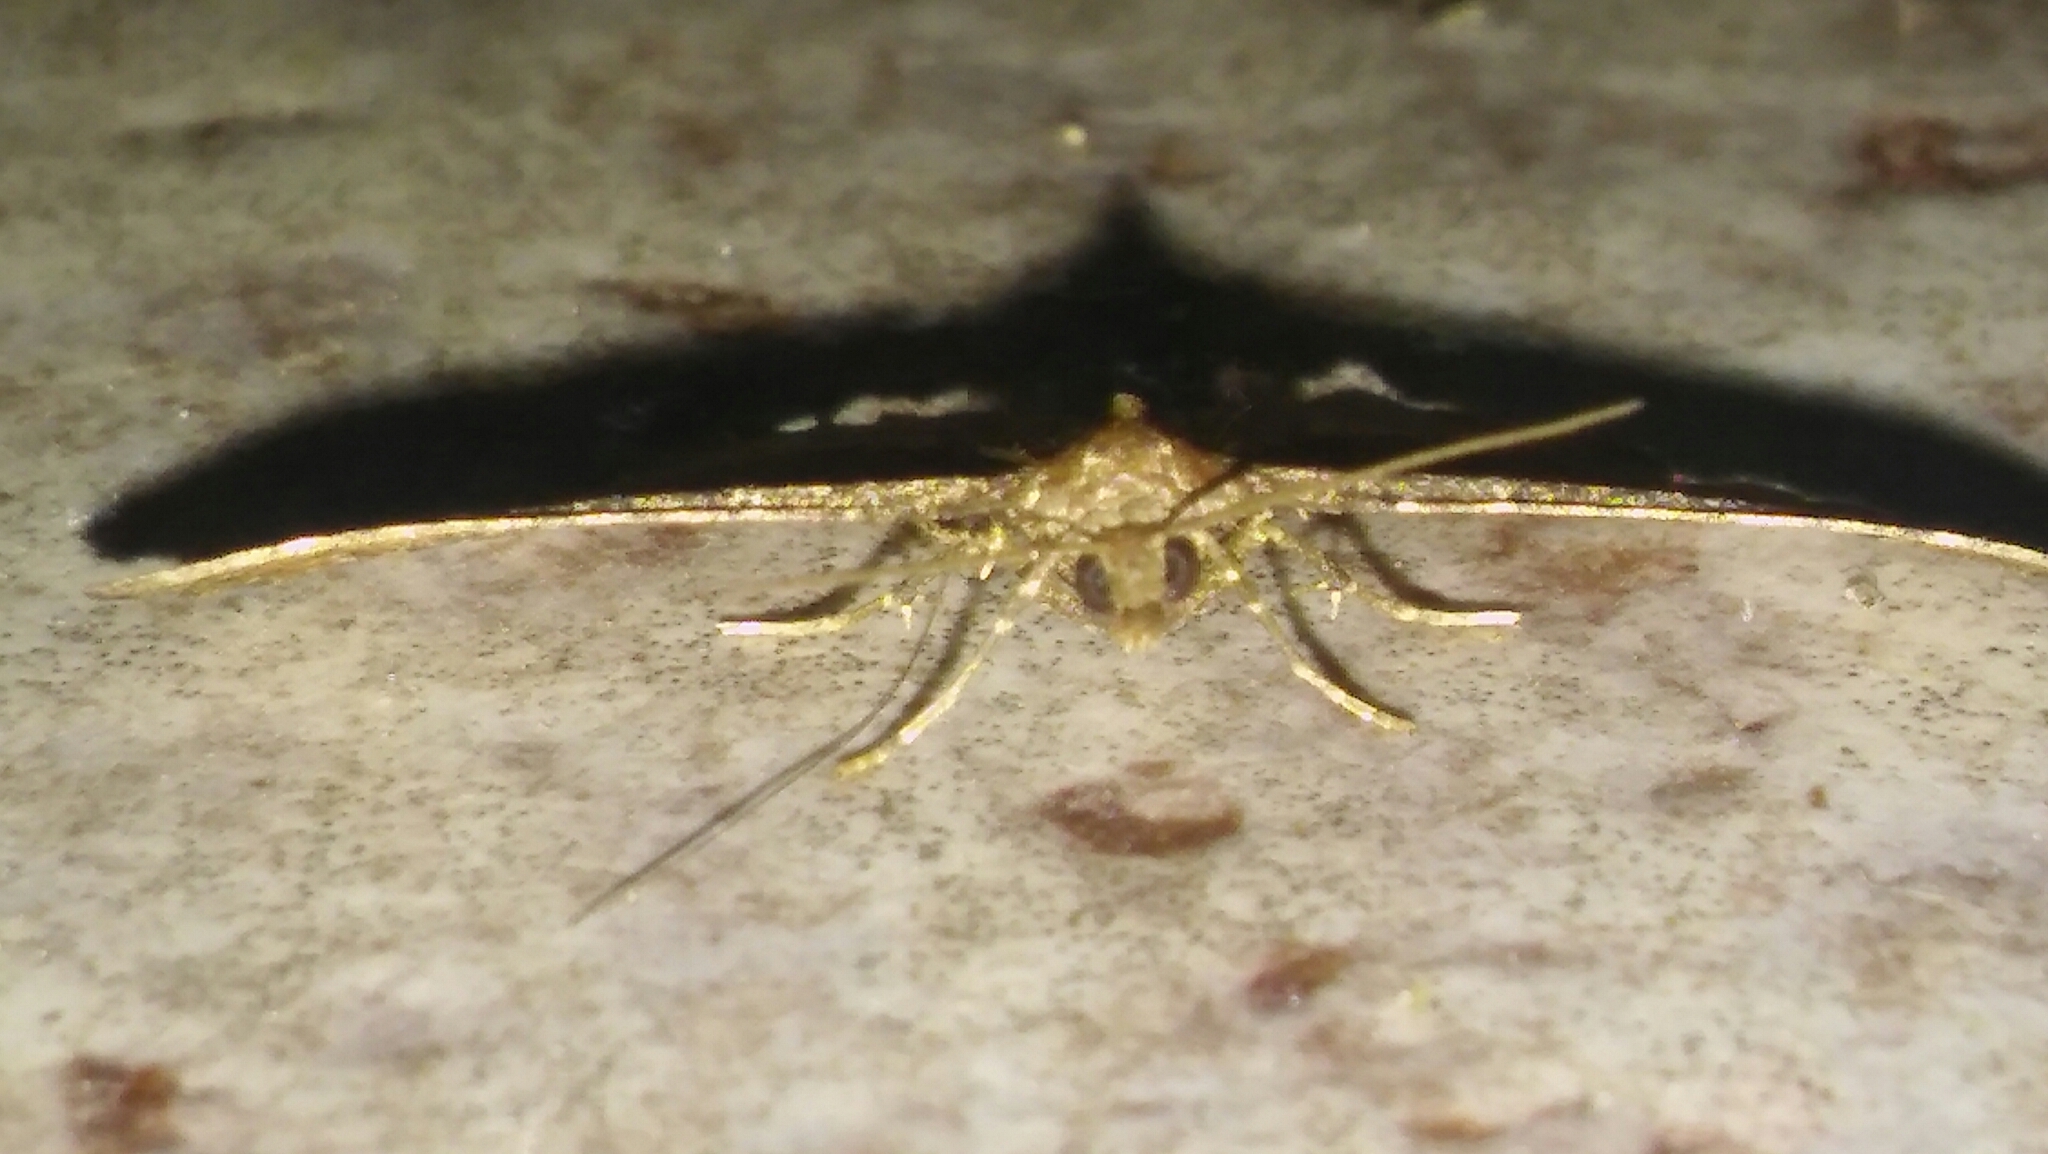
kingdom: Animalia
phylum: Arthropoda
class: Insecta
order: Lepidoptera
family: Geometridae
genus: Orthonama
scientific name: Orthonama obstipata
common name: The gem
